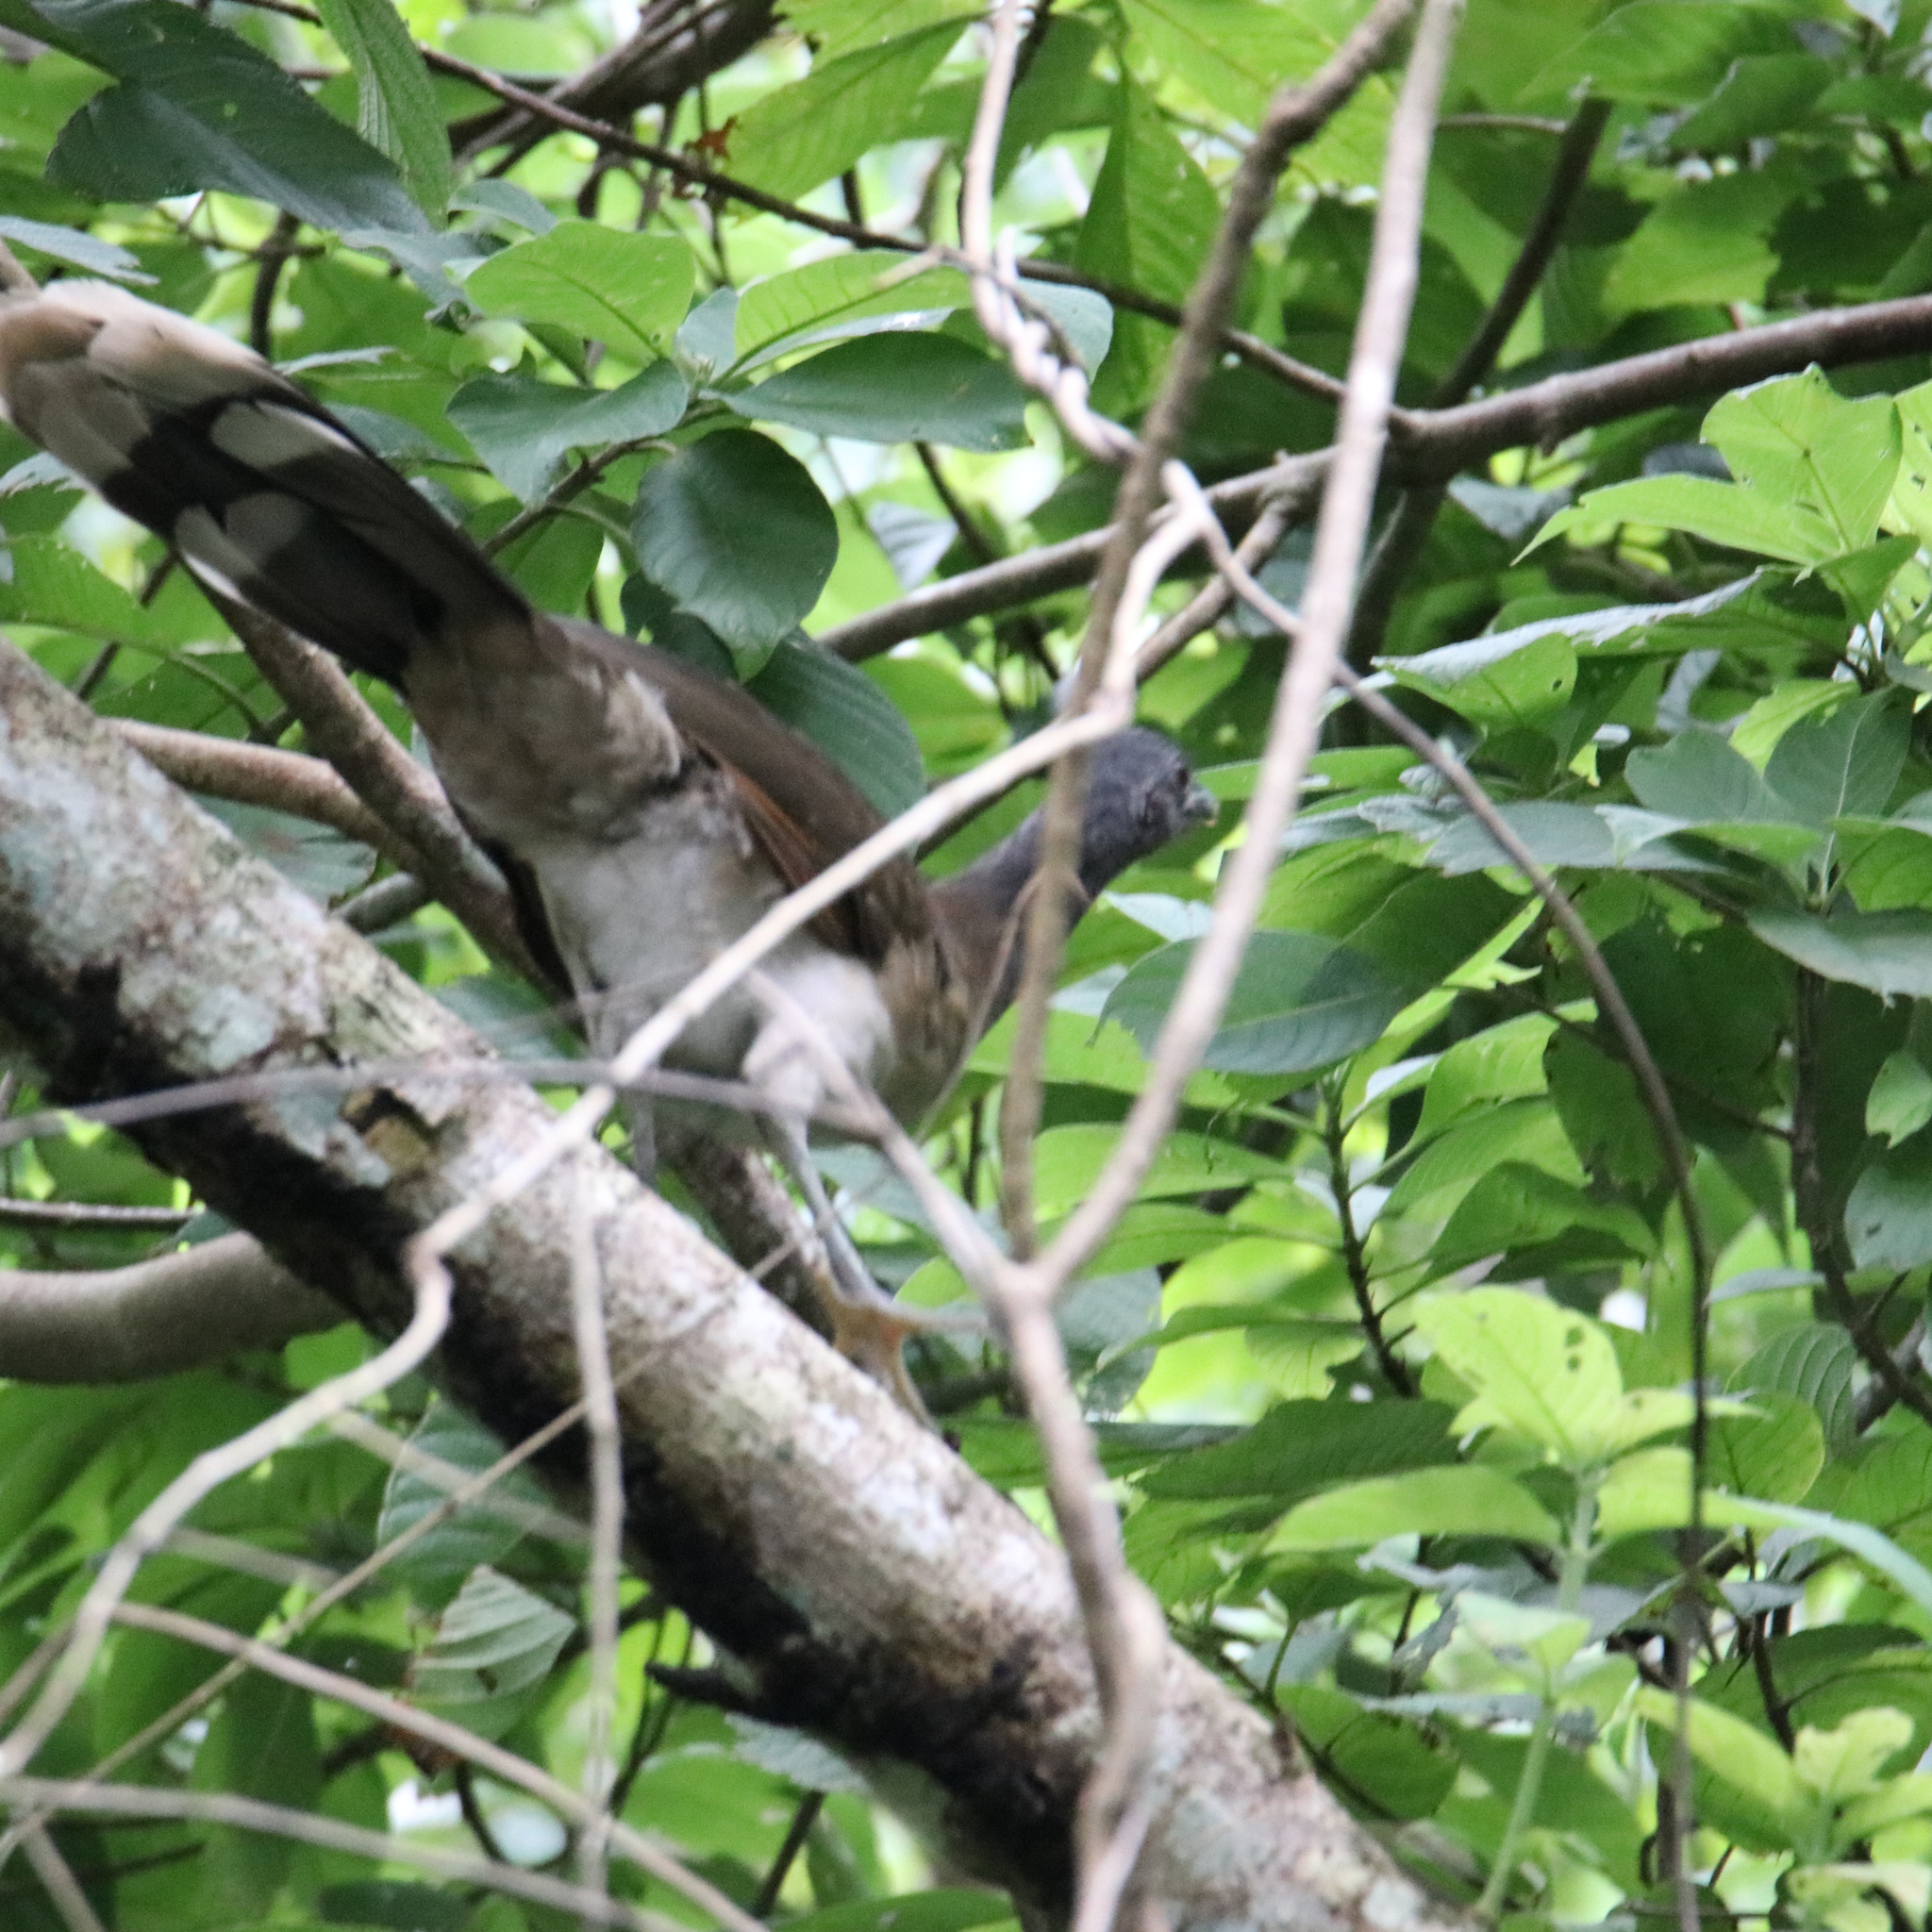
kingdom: Animalia
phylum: Chordata
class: Aves
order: Galliformes
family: Cracidae
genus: Ortalis
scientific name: Ortalis cinereiceps
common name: Grey-headed chachalaca
